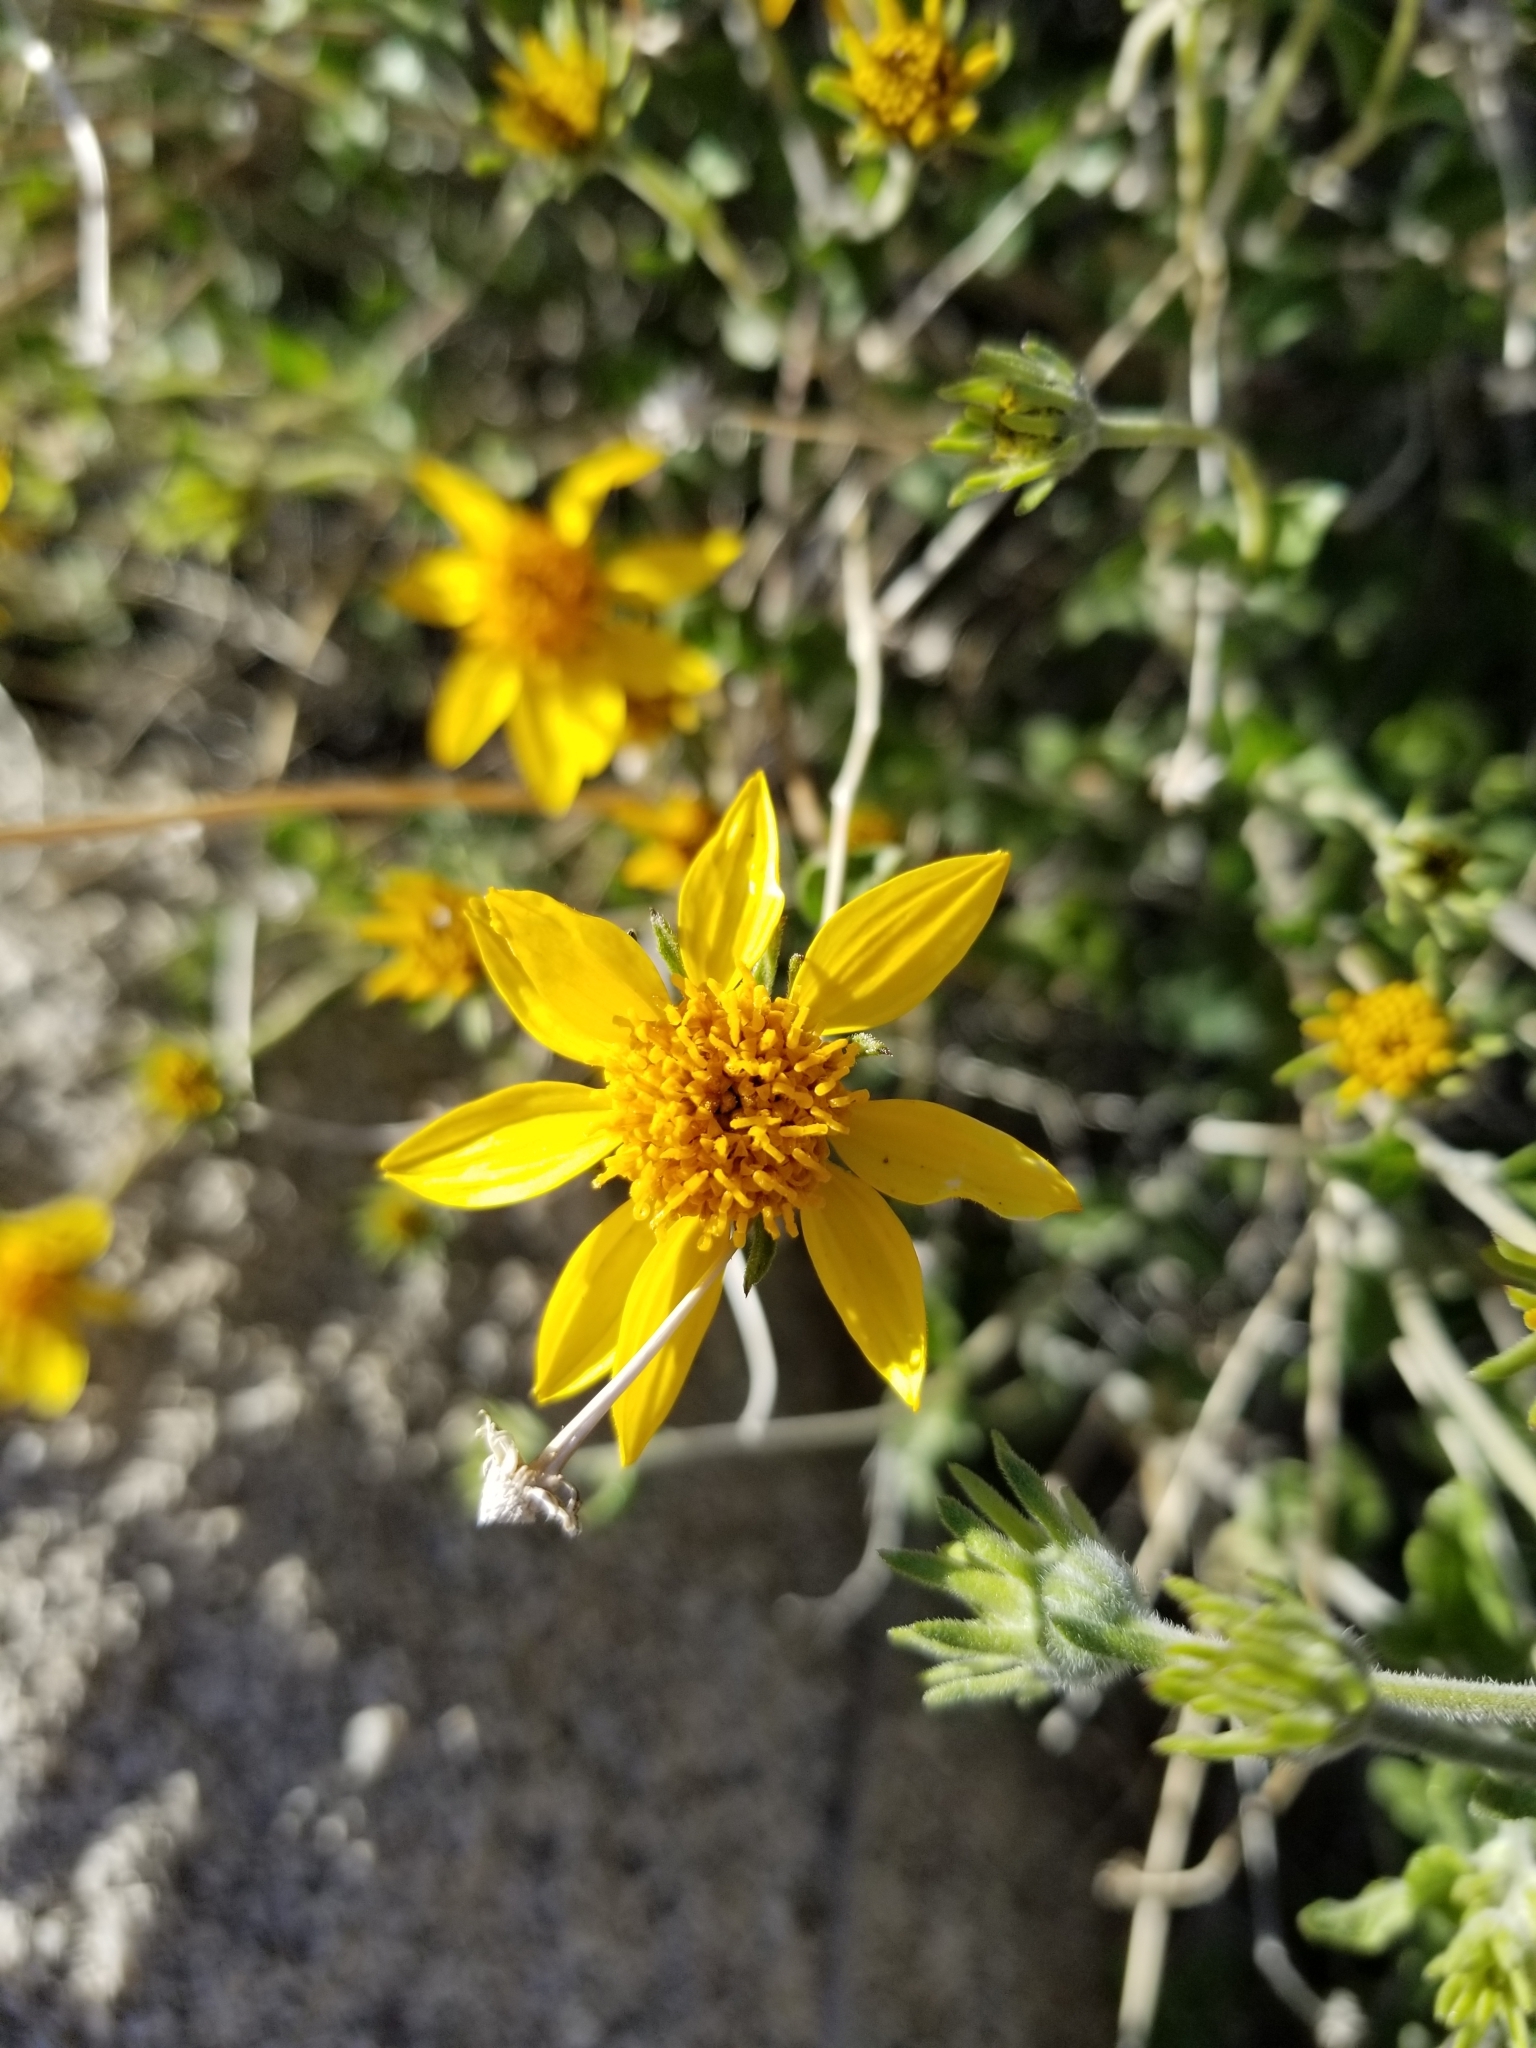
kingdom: Plantae
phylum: Tracheophyta
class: Magnoliopsida
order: Asterales
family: Asteraceae
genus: Bahiopsis
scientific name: Bahiopsis parishii
